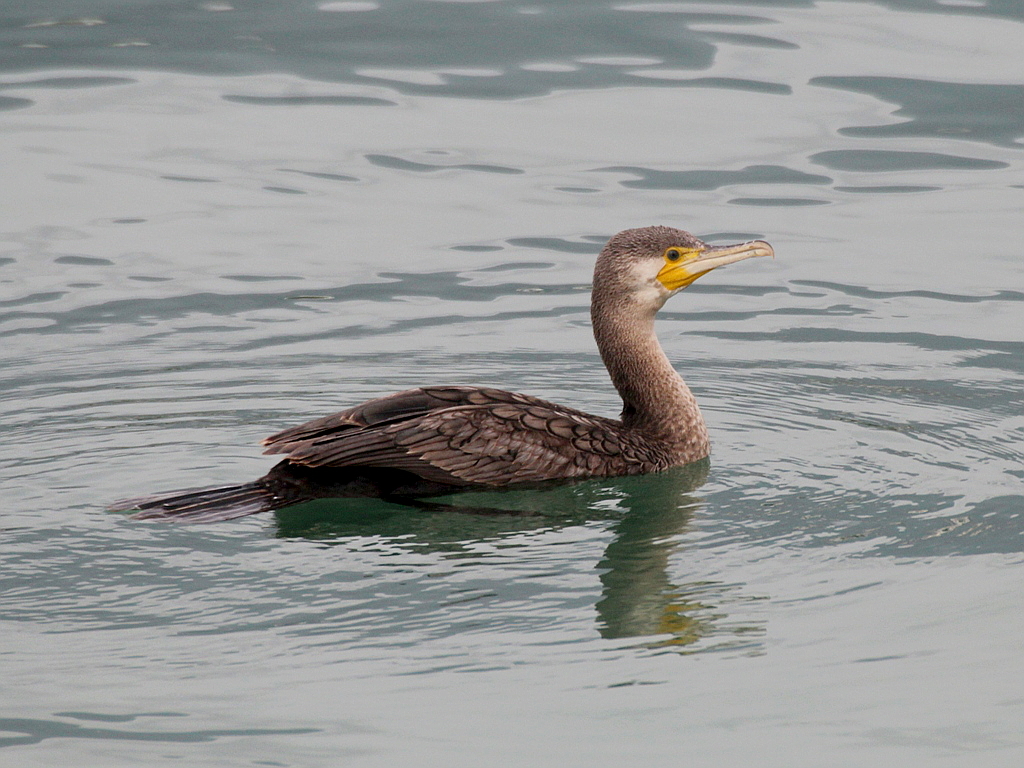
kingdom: Animalia
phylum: Chordata
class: Aves
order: Suliformes
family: Phalacrocoracidae
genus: Phalacrocorax
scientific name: Phalacrocorax carbo
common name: Great cormorant
